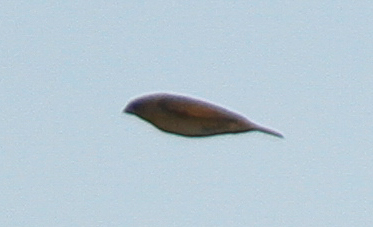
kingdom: Animalia
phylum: Chordata
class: Aves
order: Passeriformes
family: Estrildidae
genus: Lonchura
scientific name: Lonchura punctulata
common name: Scaly-breasted munia
